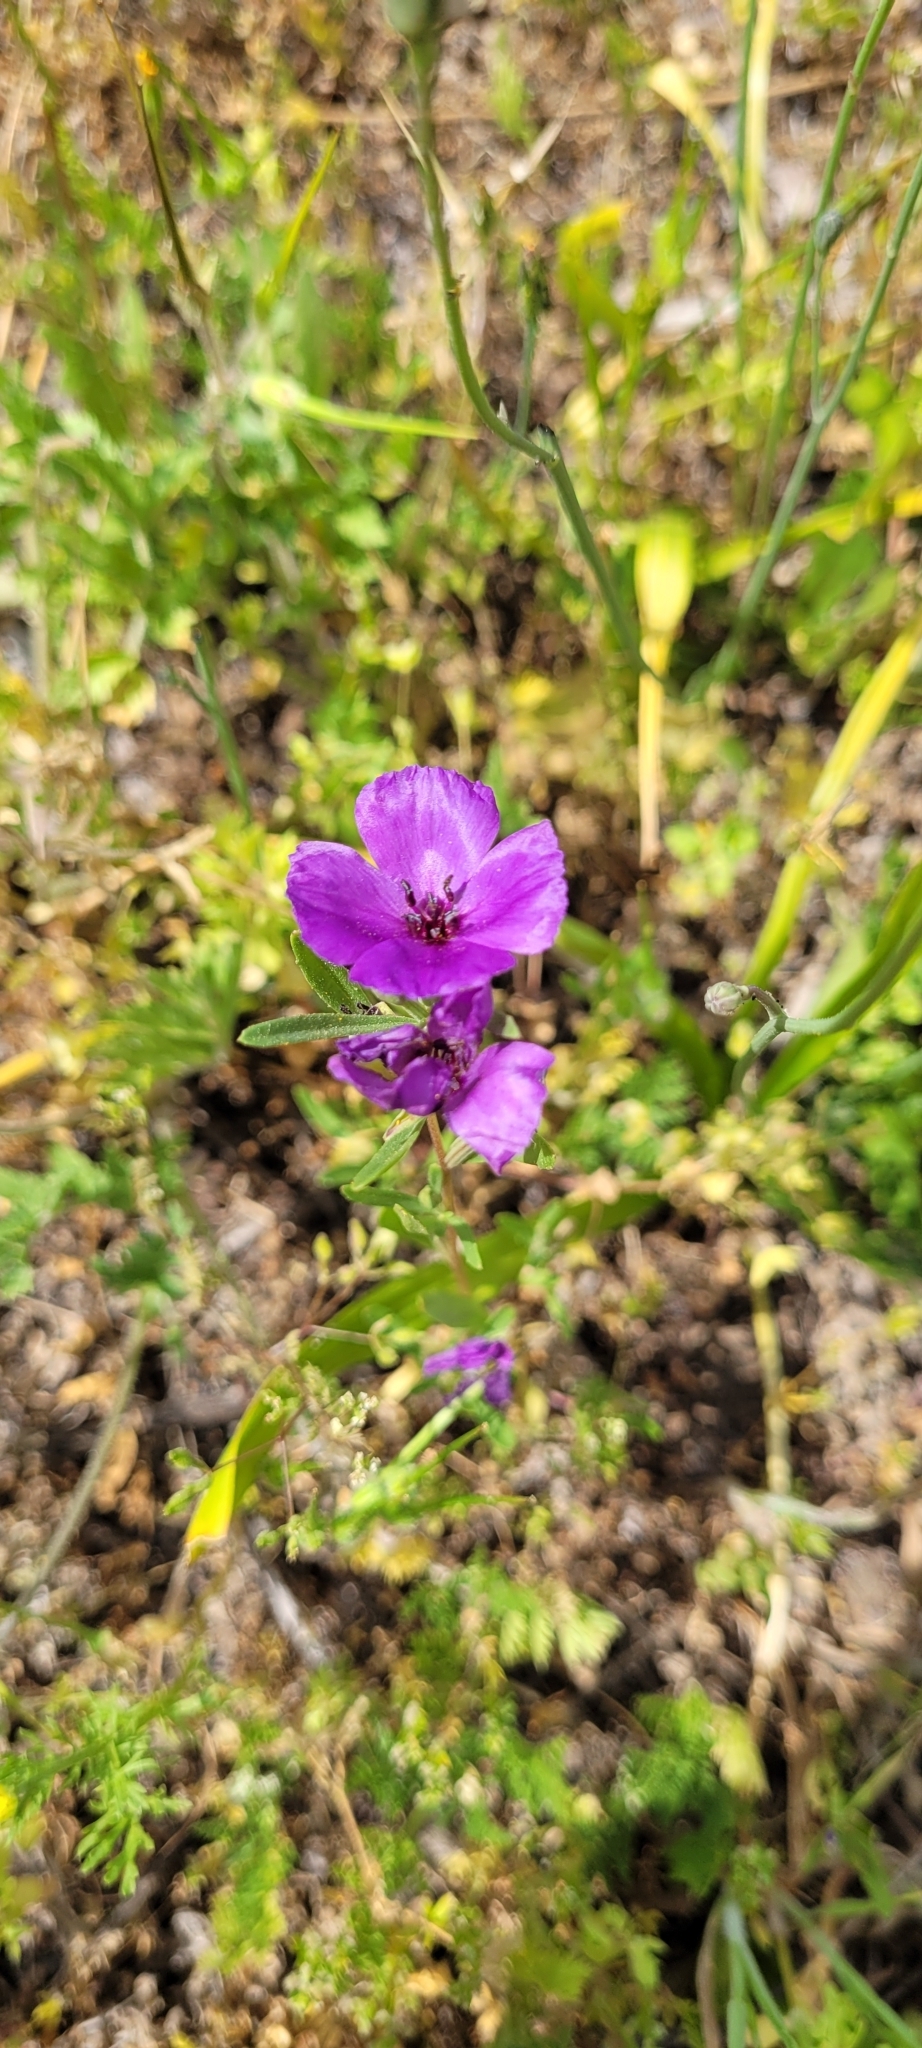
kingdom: Plantae
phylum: Tracheophyta
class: Magnoliopsida
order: Myrtales
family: Onagraceae
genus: Clarkia
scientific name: Clarkia tenella
